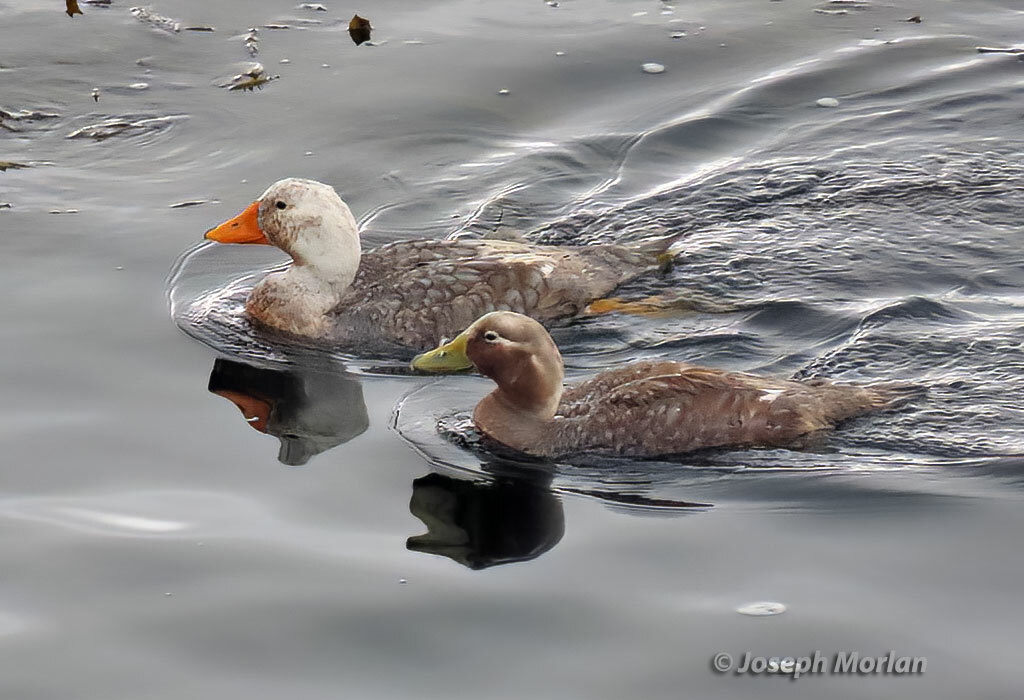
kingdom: Animalia
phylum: Chordata
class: Aves
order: Anseriformes
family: Anatidae
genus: Tachyeres
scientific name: Tachyeres brachypterus
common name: Falkland steamer duck
